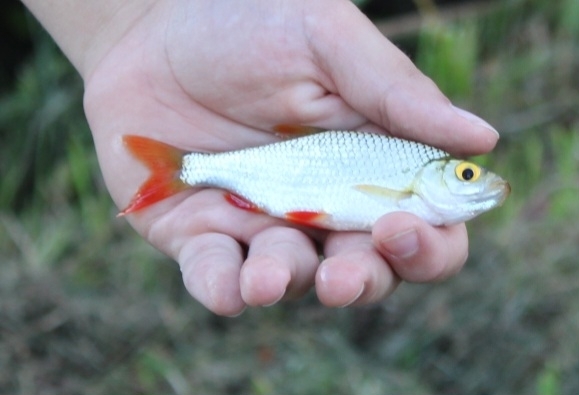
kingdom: Animalia
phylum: Chordata
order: Cypriniformes
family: Cyprinidae
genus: Scardinius
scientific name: Scardinius erythrophthalmus
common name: Rudd
